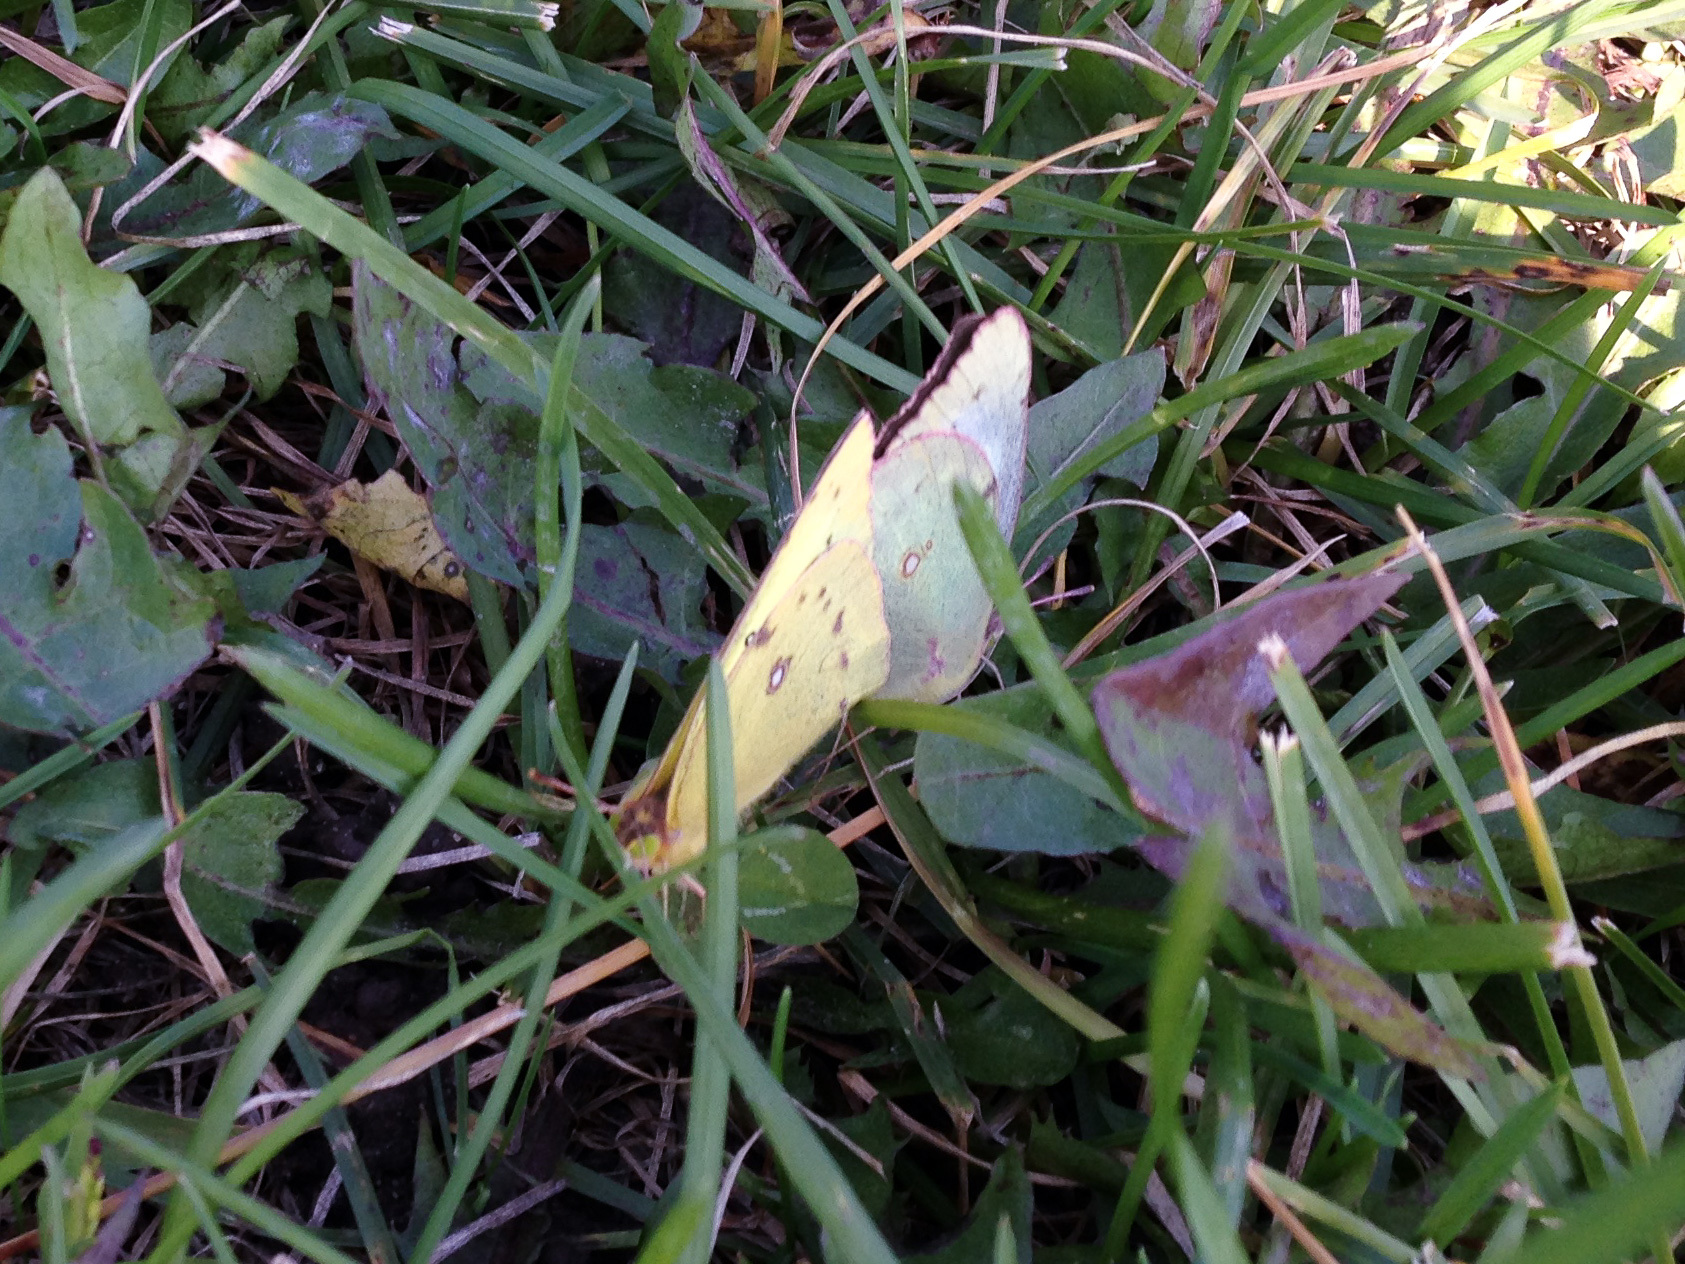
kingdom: Animalia
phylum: Arthropoda
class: Insecta
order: Lepidoptera
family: Pieridae
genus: Colias
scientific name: Colias philodice
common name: Clouded sulphur
